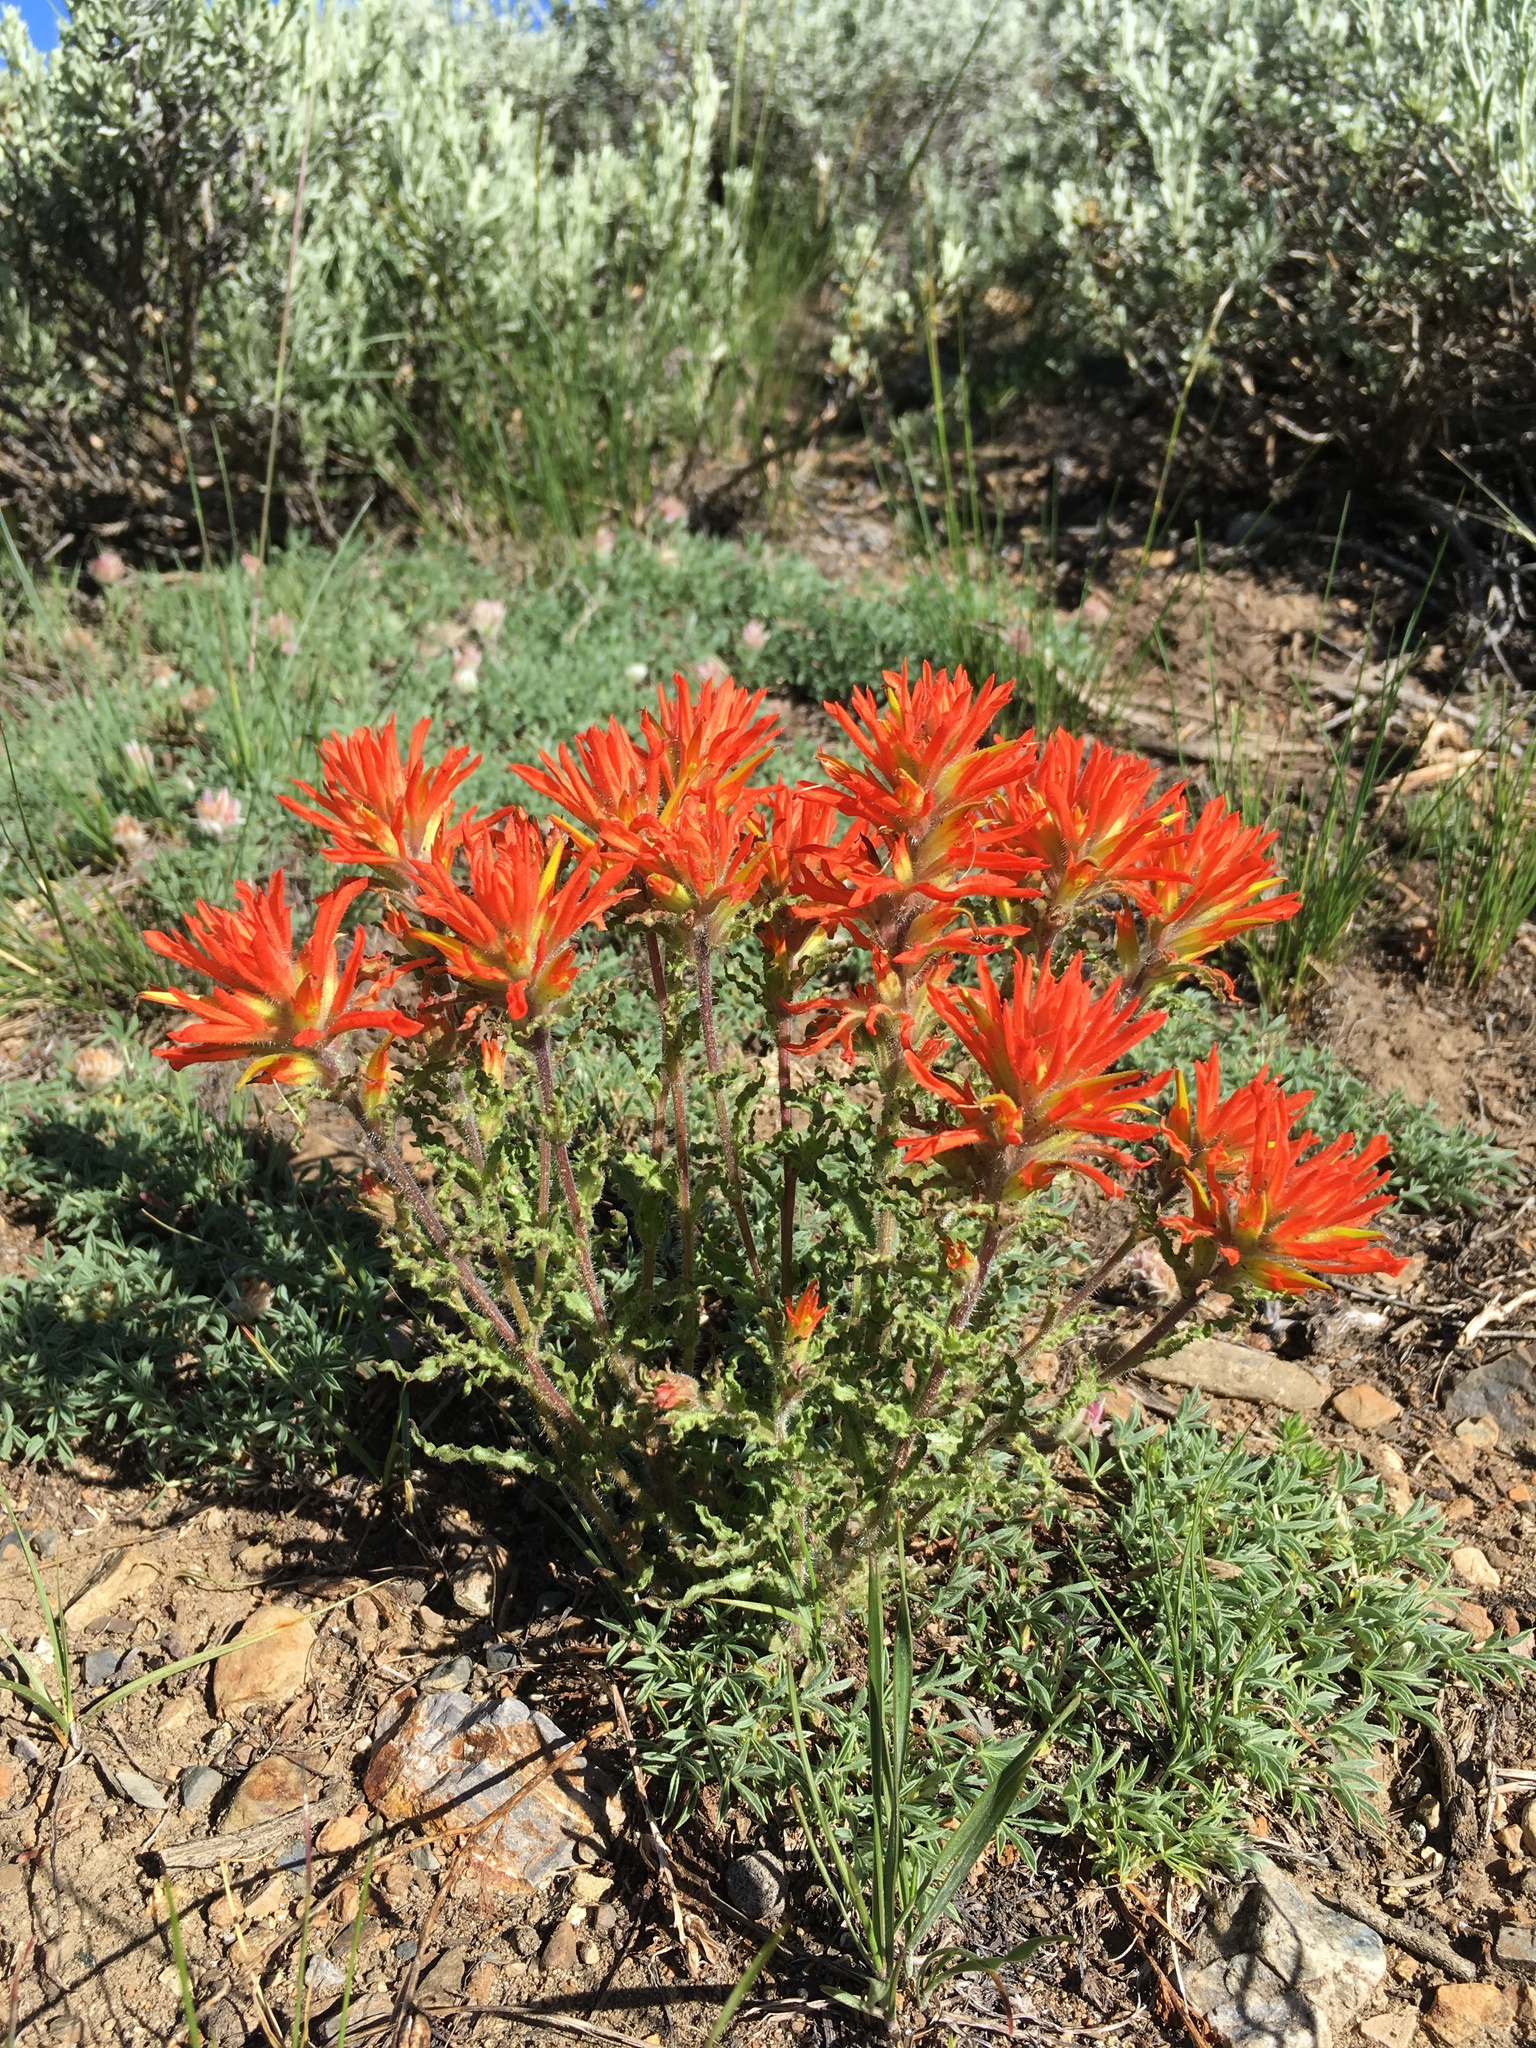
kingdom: Plantae
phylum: Tracheophyta
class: Magnoliopsida
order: Lamiales
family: Orobanchaceae
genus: Castilleja
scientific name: Castilleja applegatei
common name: Wavy-leaf paintbrush
